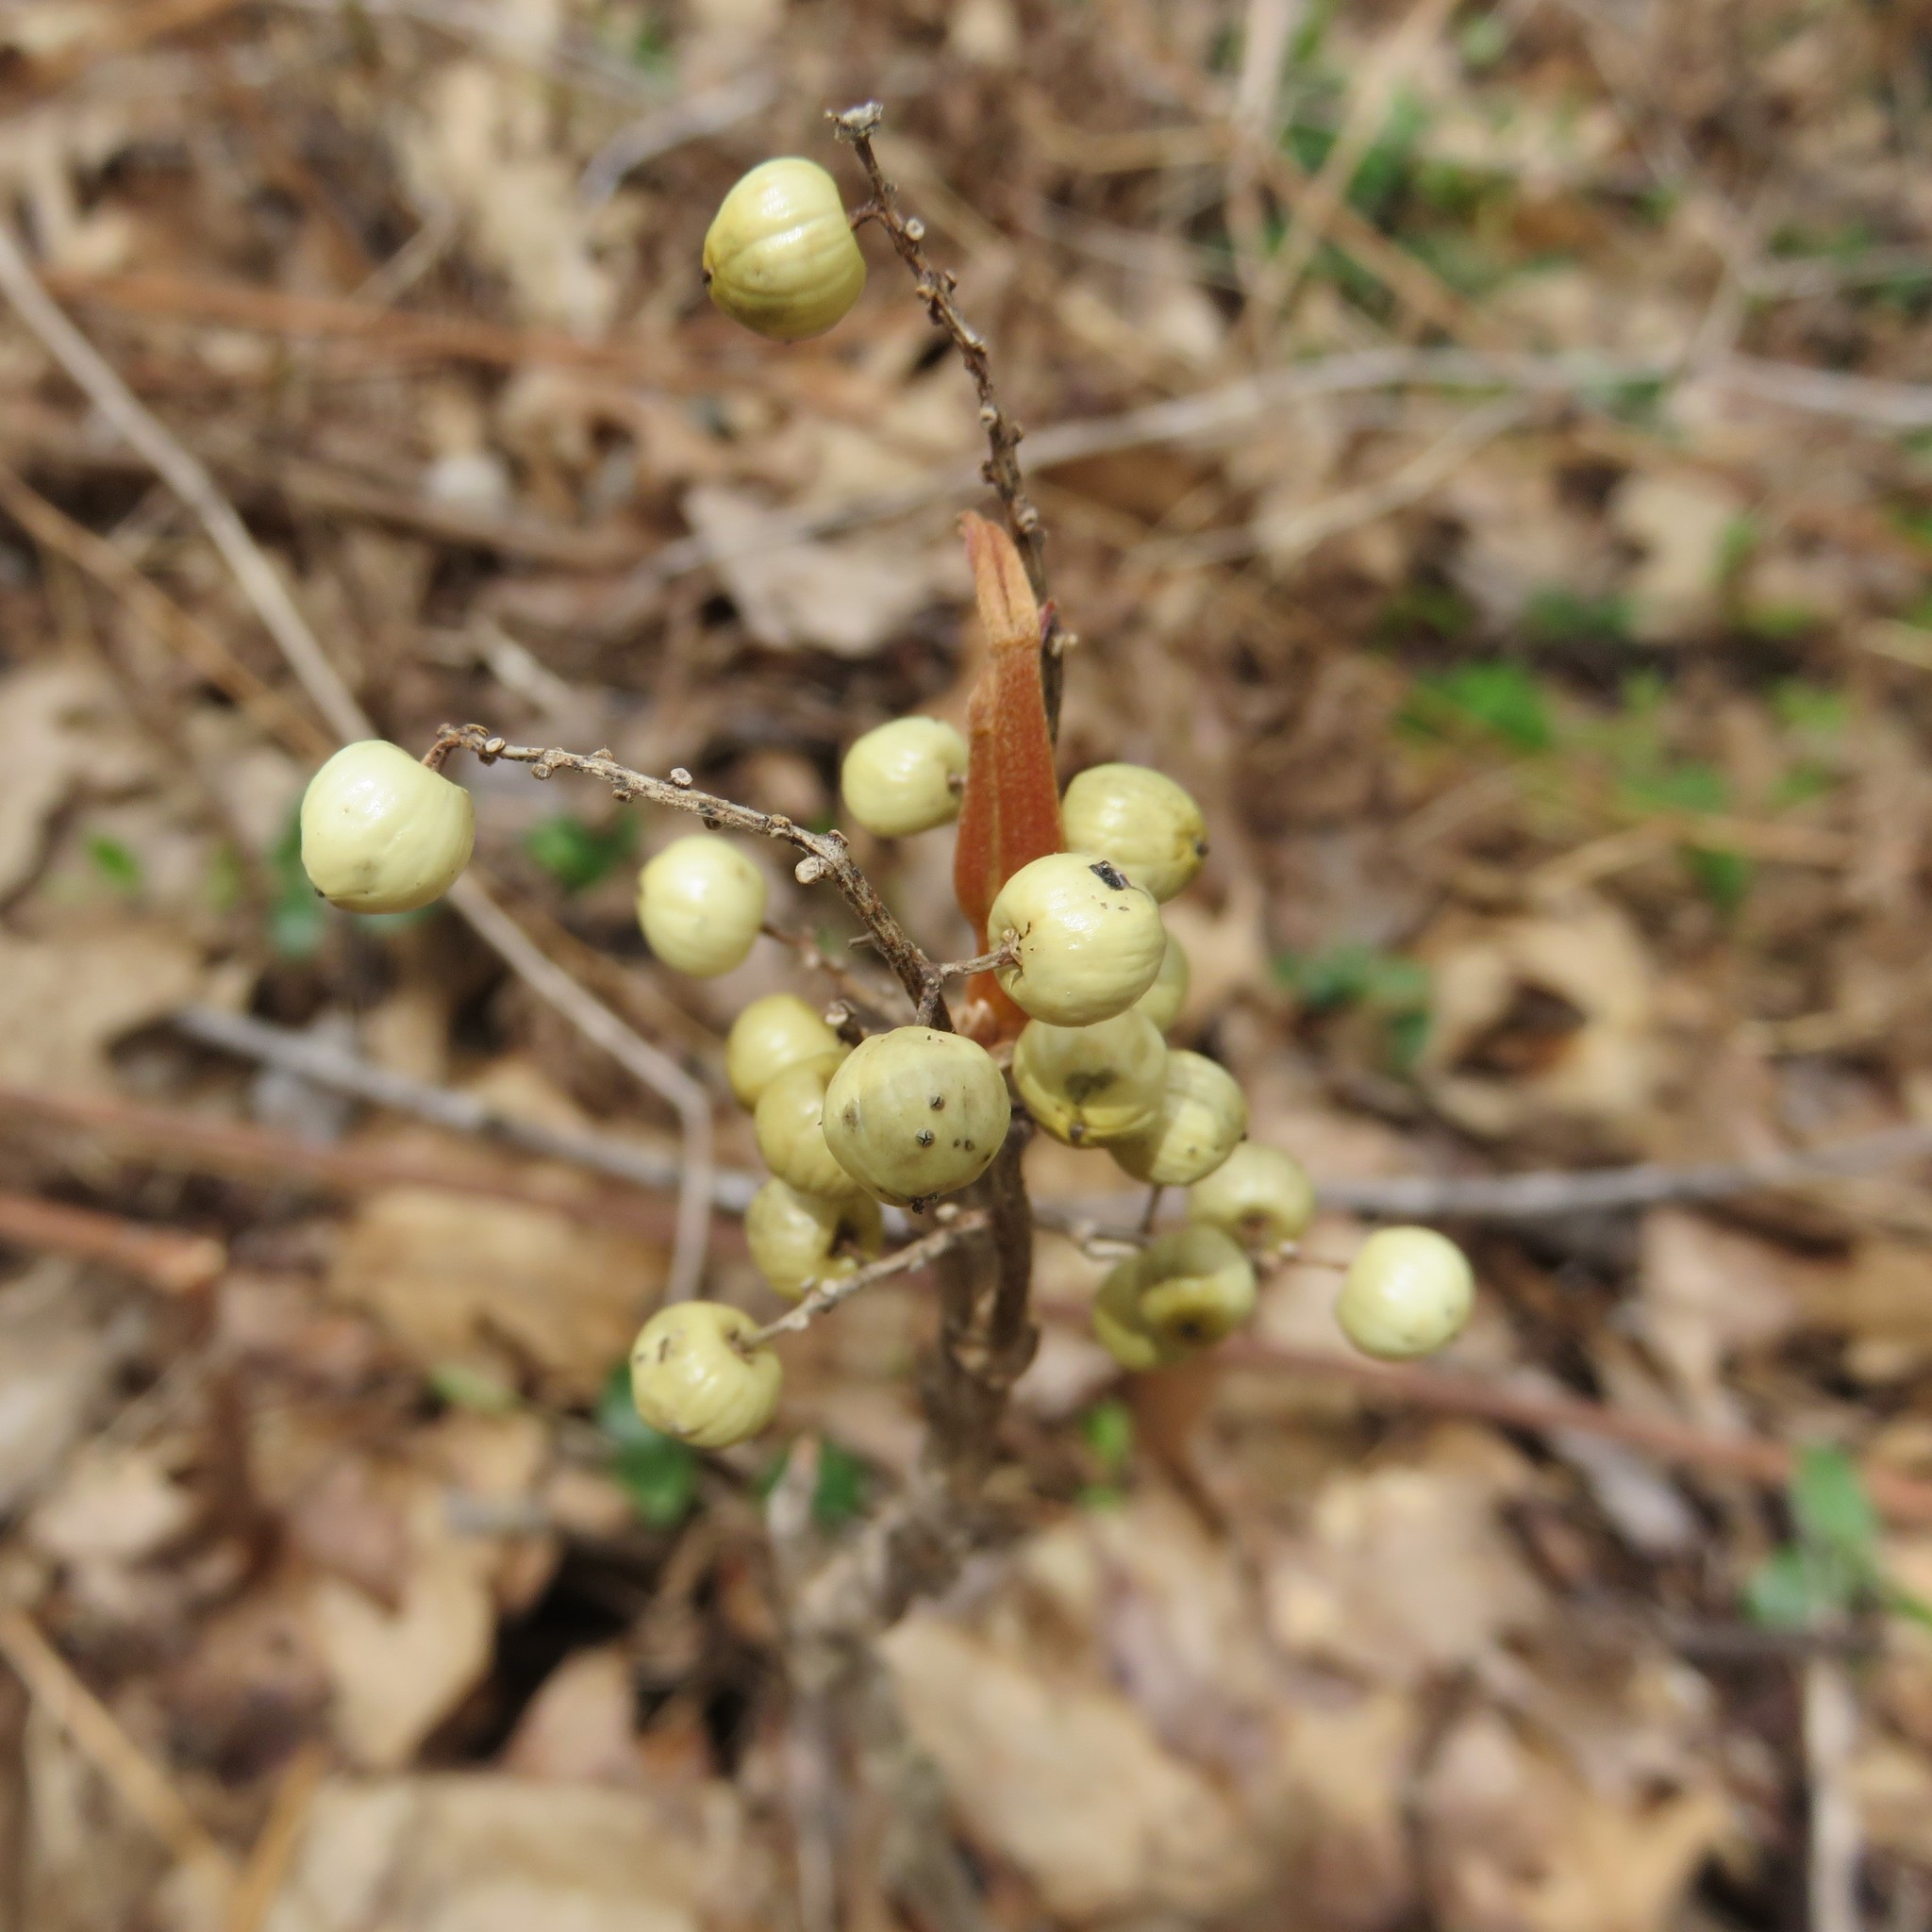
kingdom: Plantae
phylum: Tracheophyta
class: Magnoliopsida
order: Sapindales
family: Anacardiaceae
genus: Toxicodendron
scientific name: Toxicodendron rydbergii
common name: Rydberg's poison-ivy
